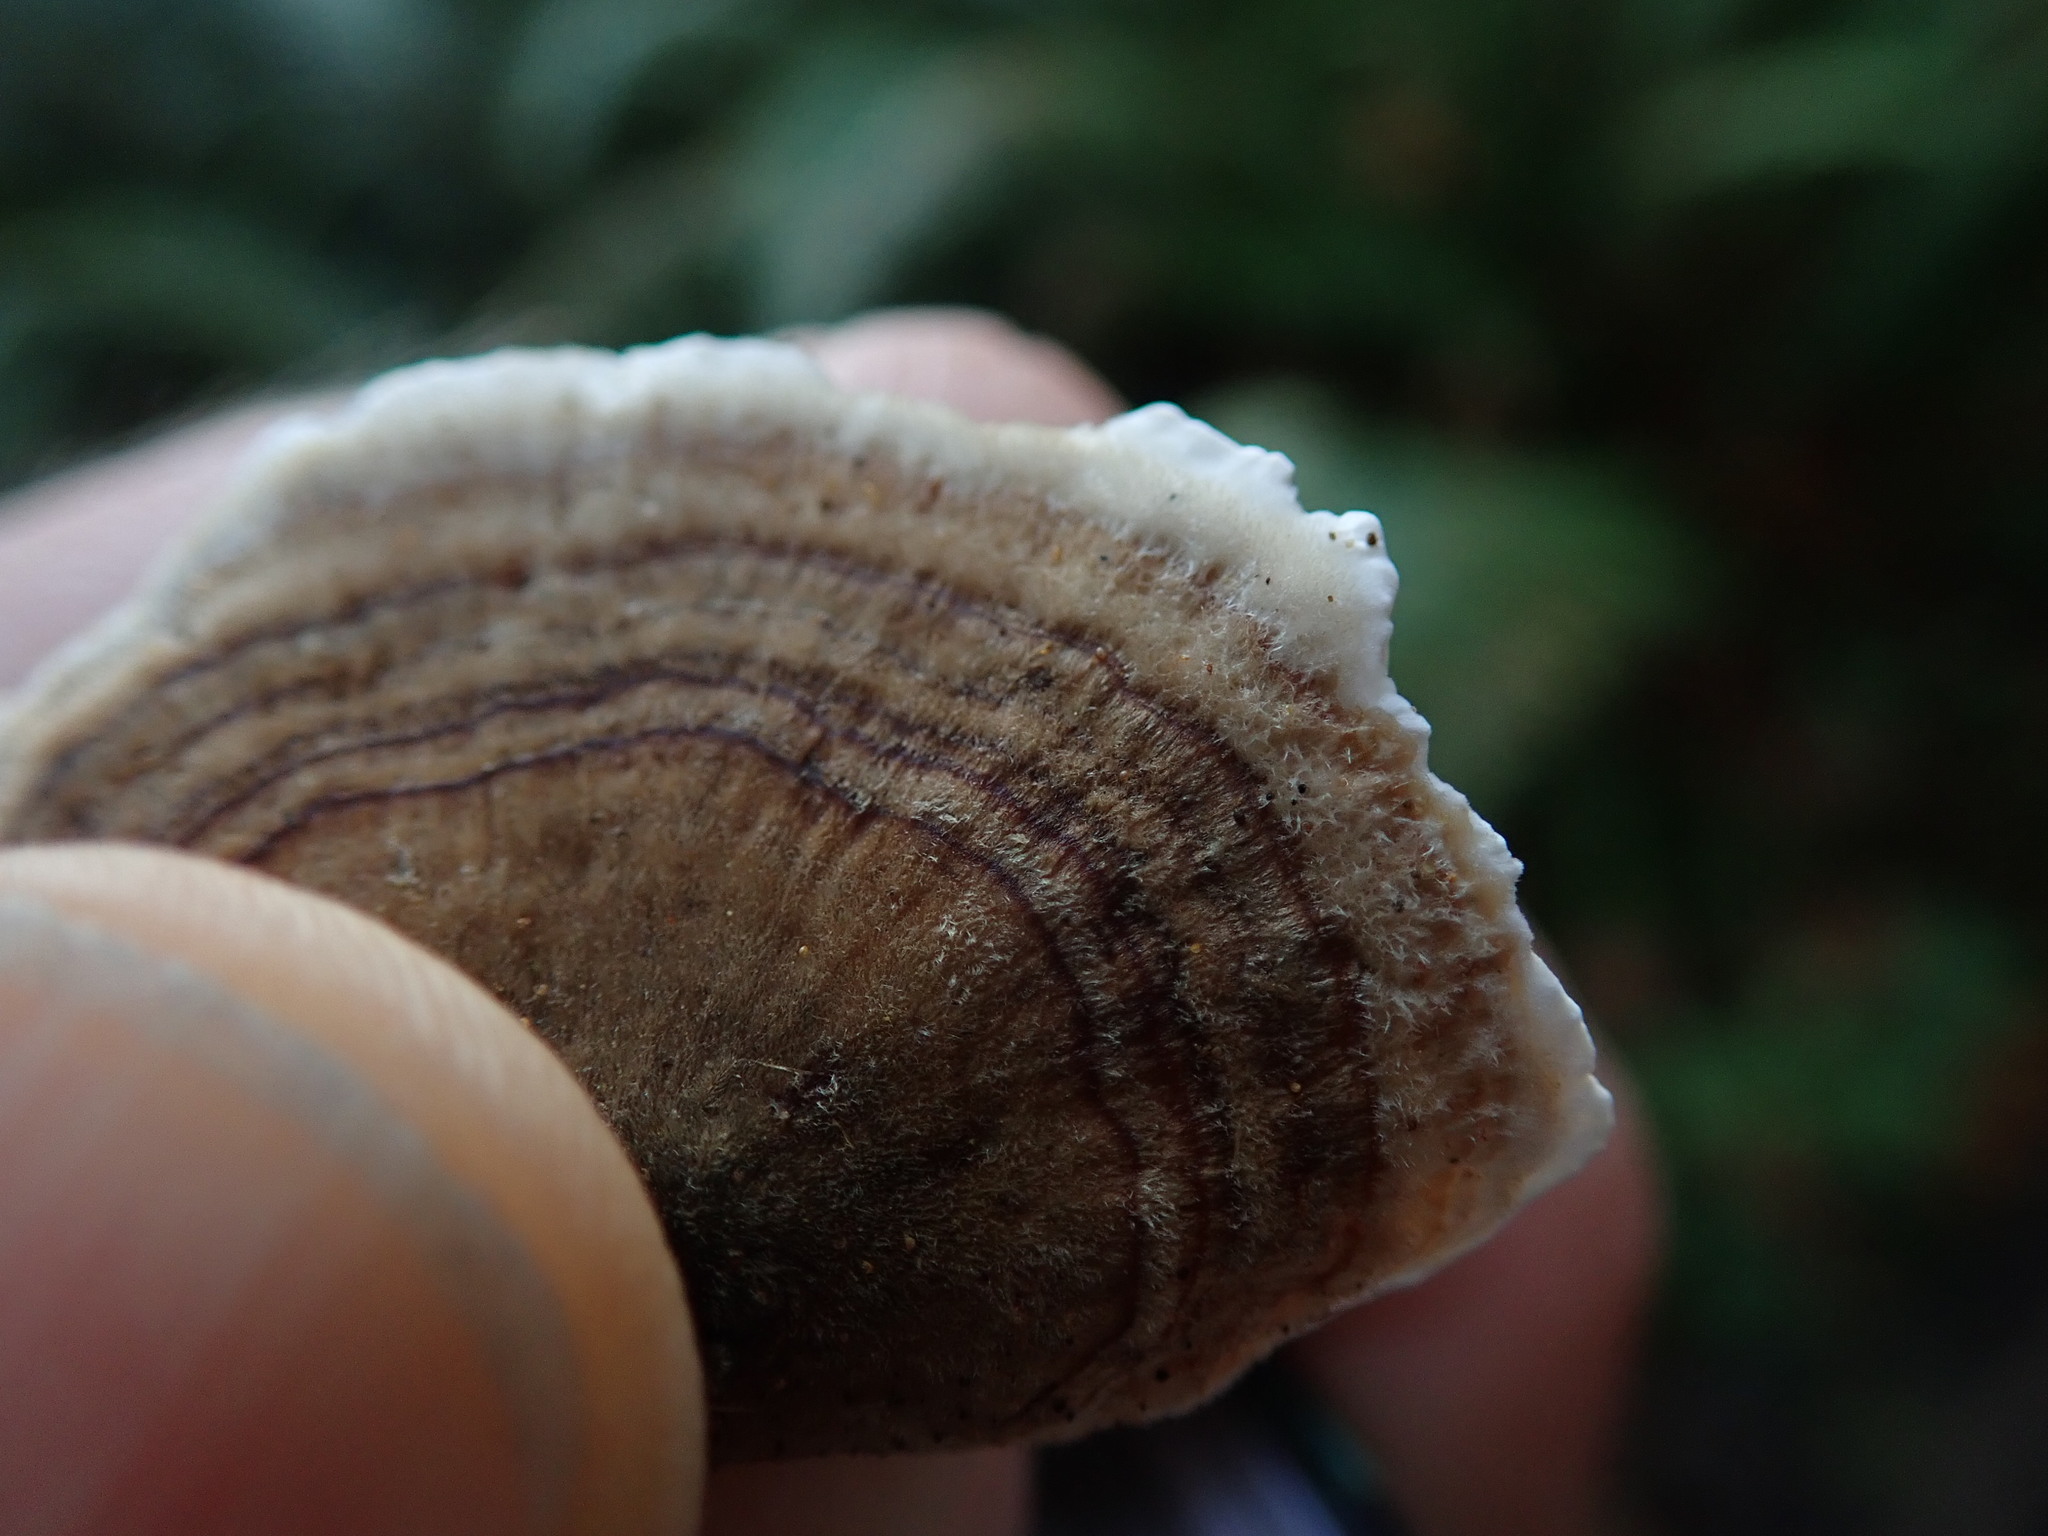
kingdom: Fungi
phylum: Basidiomycota
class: Agaricomycetes
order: Polyporales
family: Polyporaceae
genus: Trametes
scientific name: Trametes hirsuta
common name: Hairy bracket
